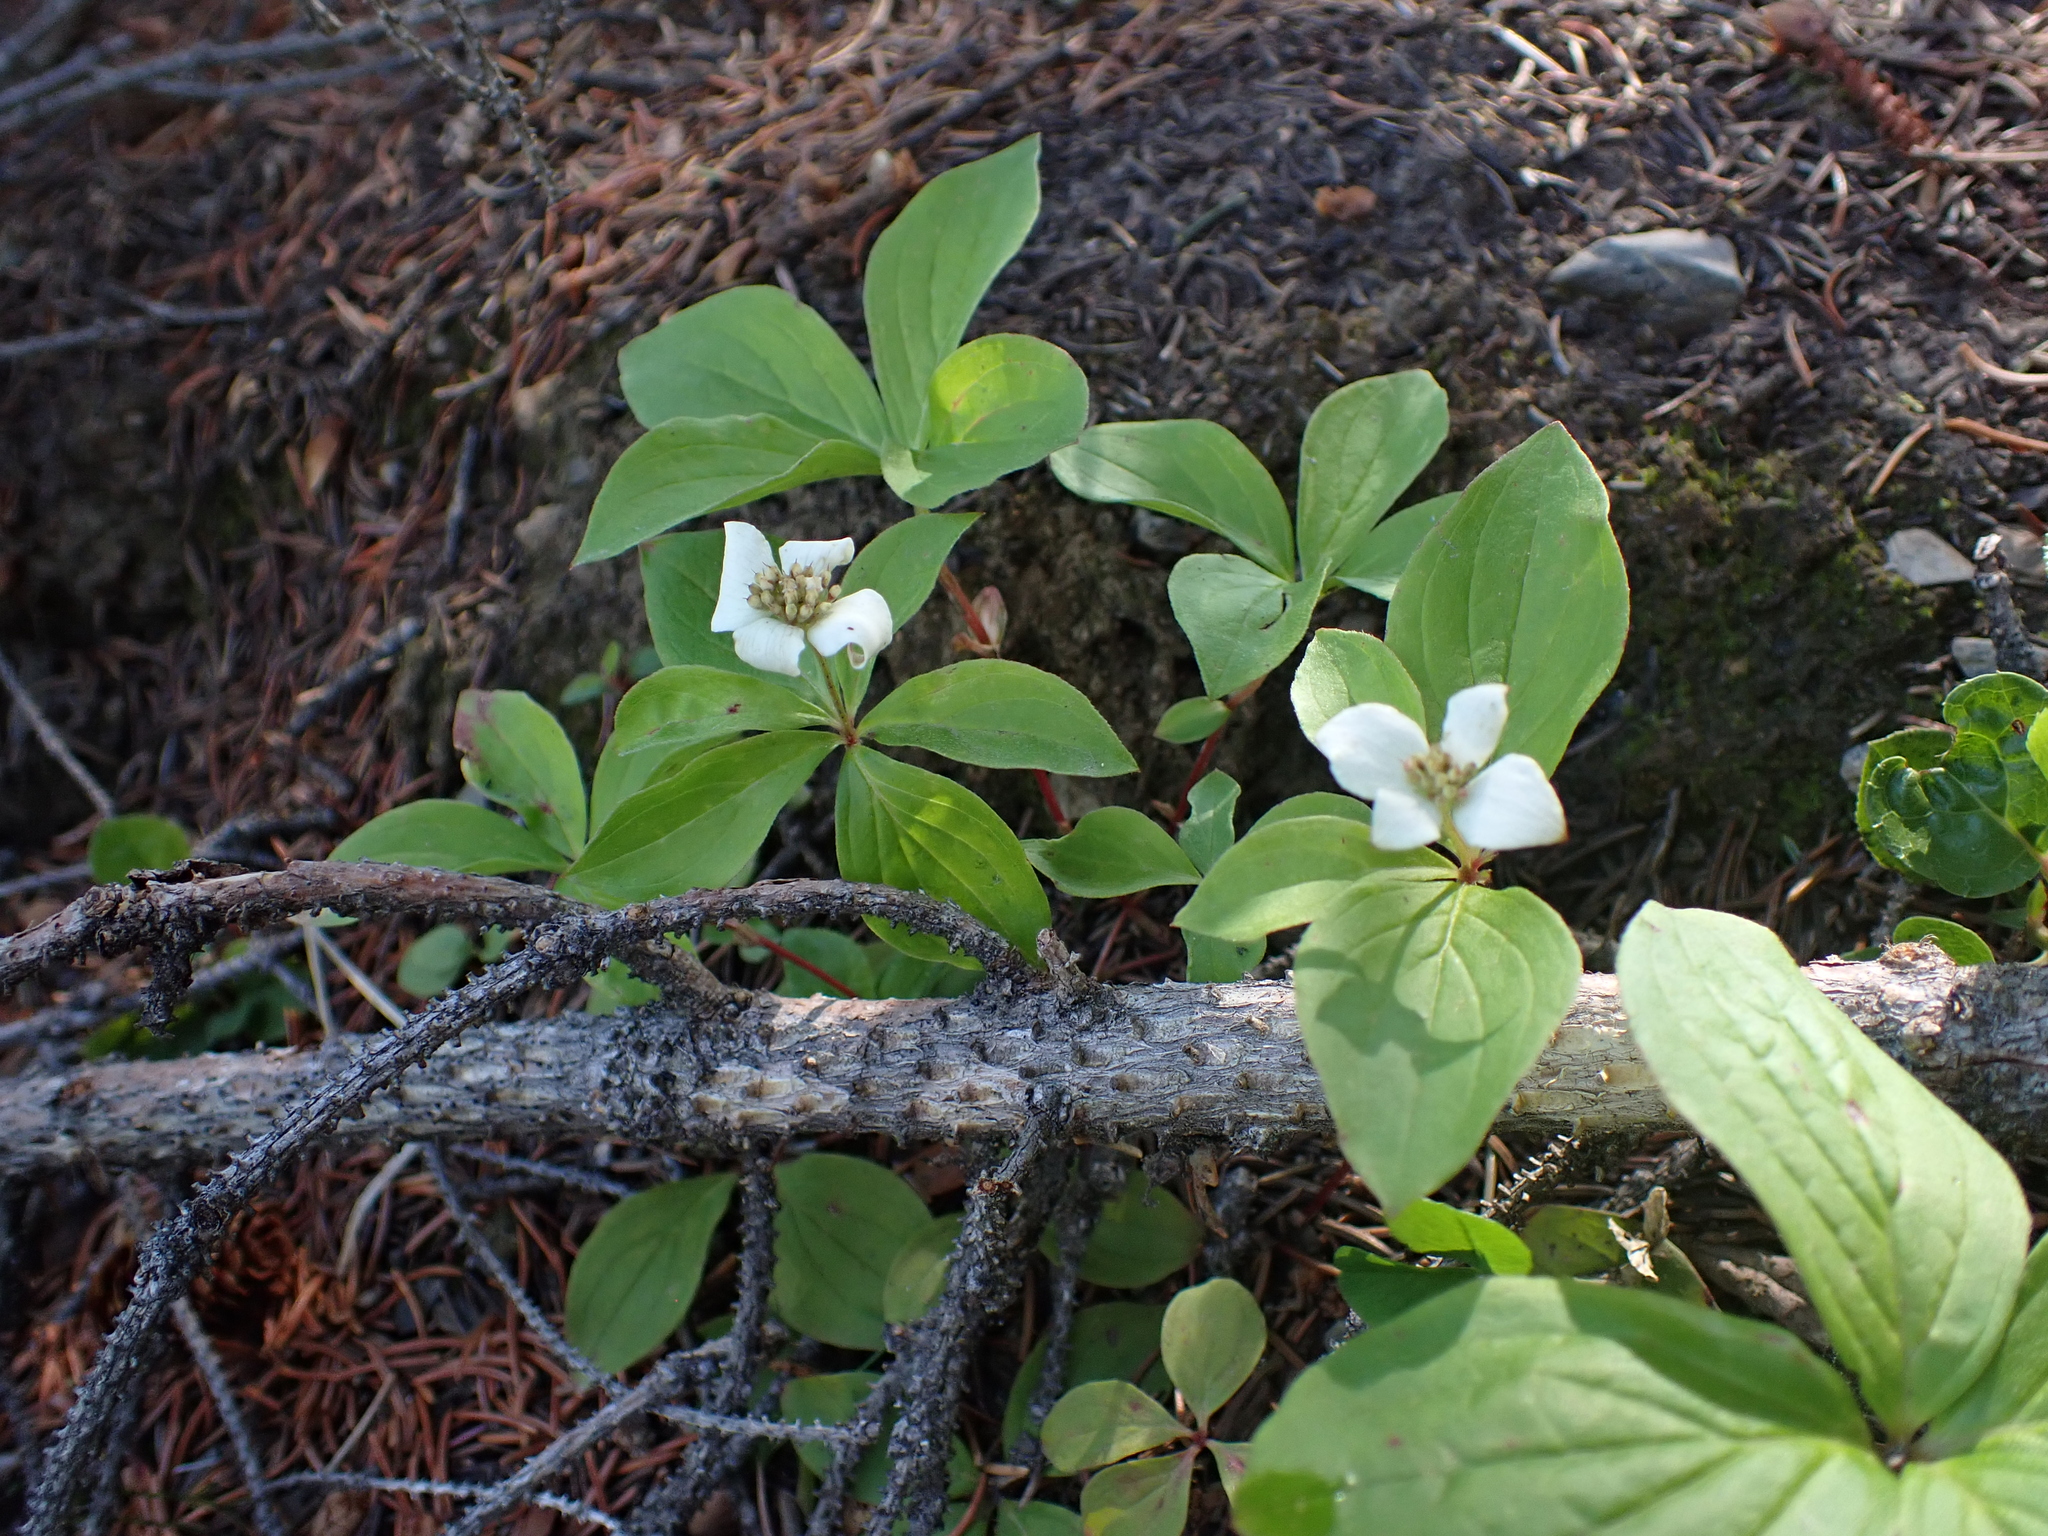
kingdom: Plantae
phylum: Tracheophyta
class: Magnoliopsida
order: Cornales
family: Cornaceae
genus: Cornus
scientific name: Cornus canadensis
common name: Creeping dogwood
